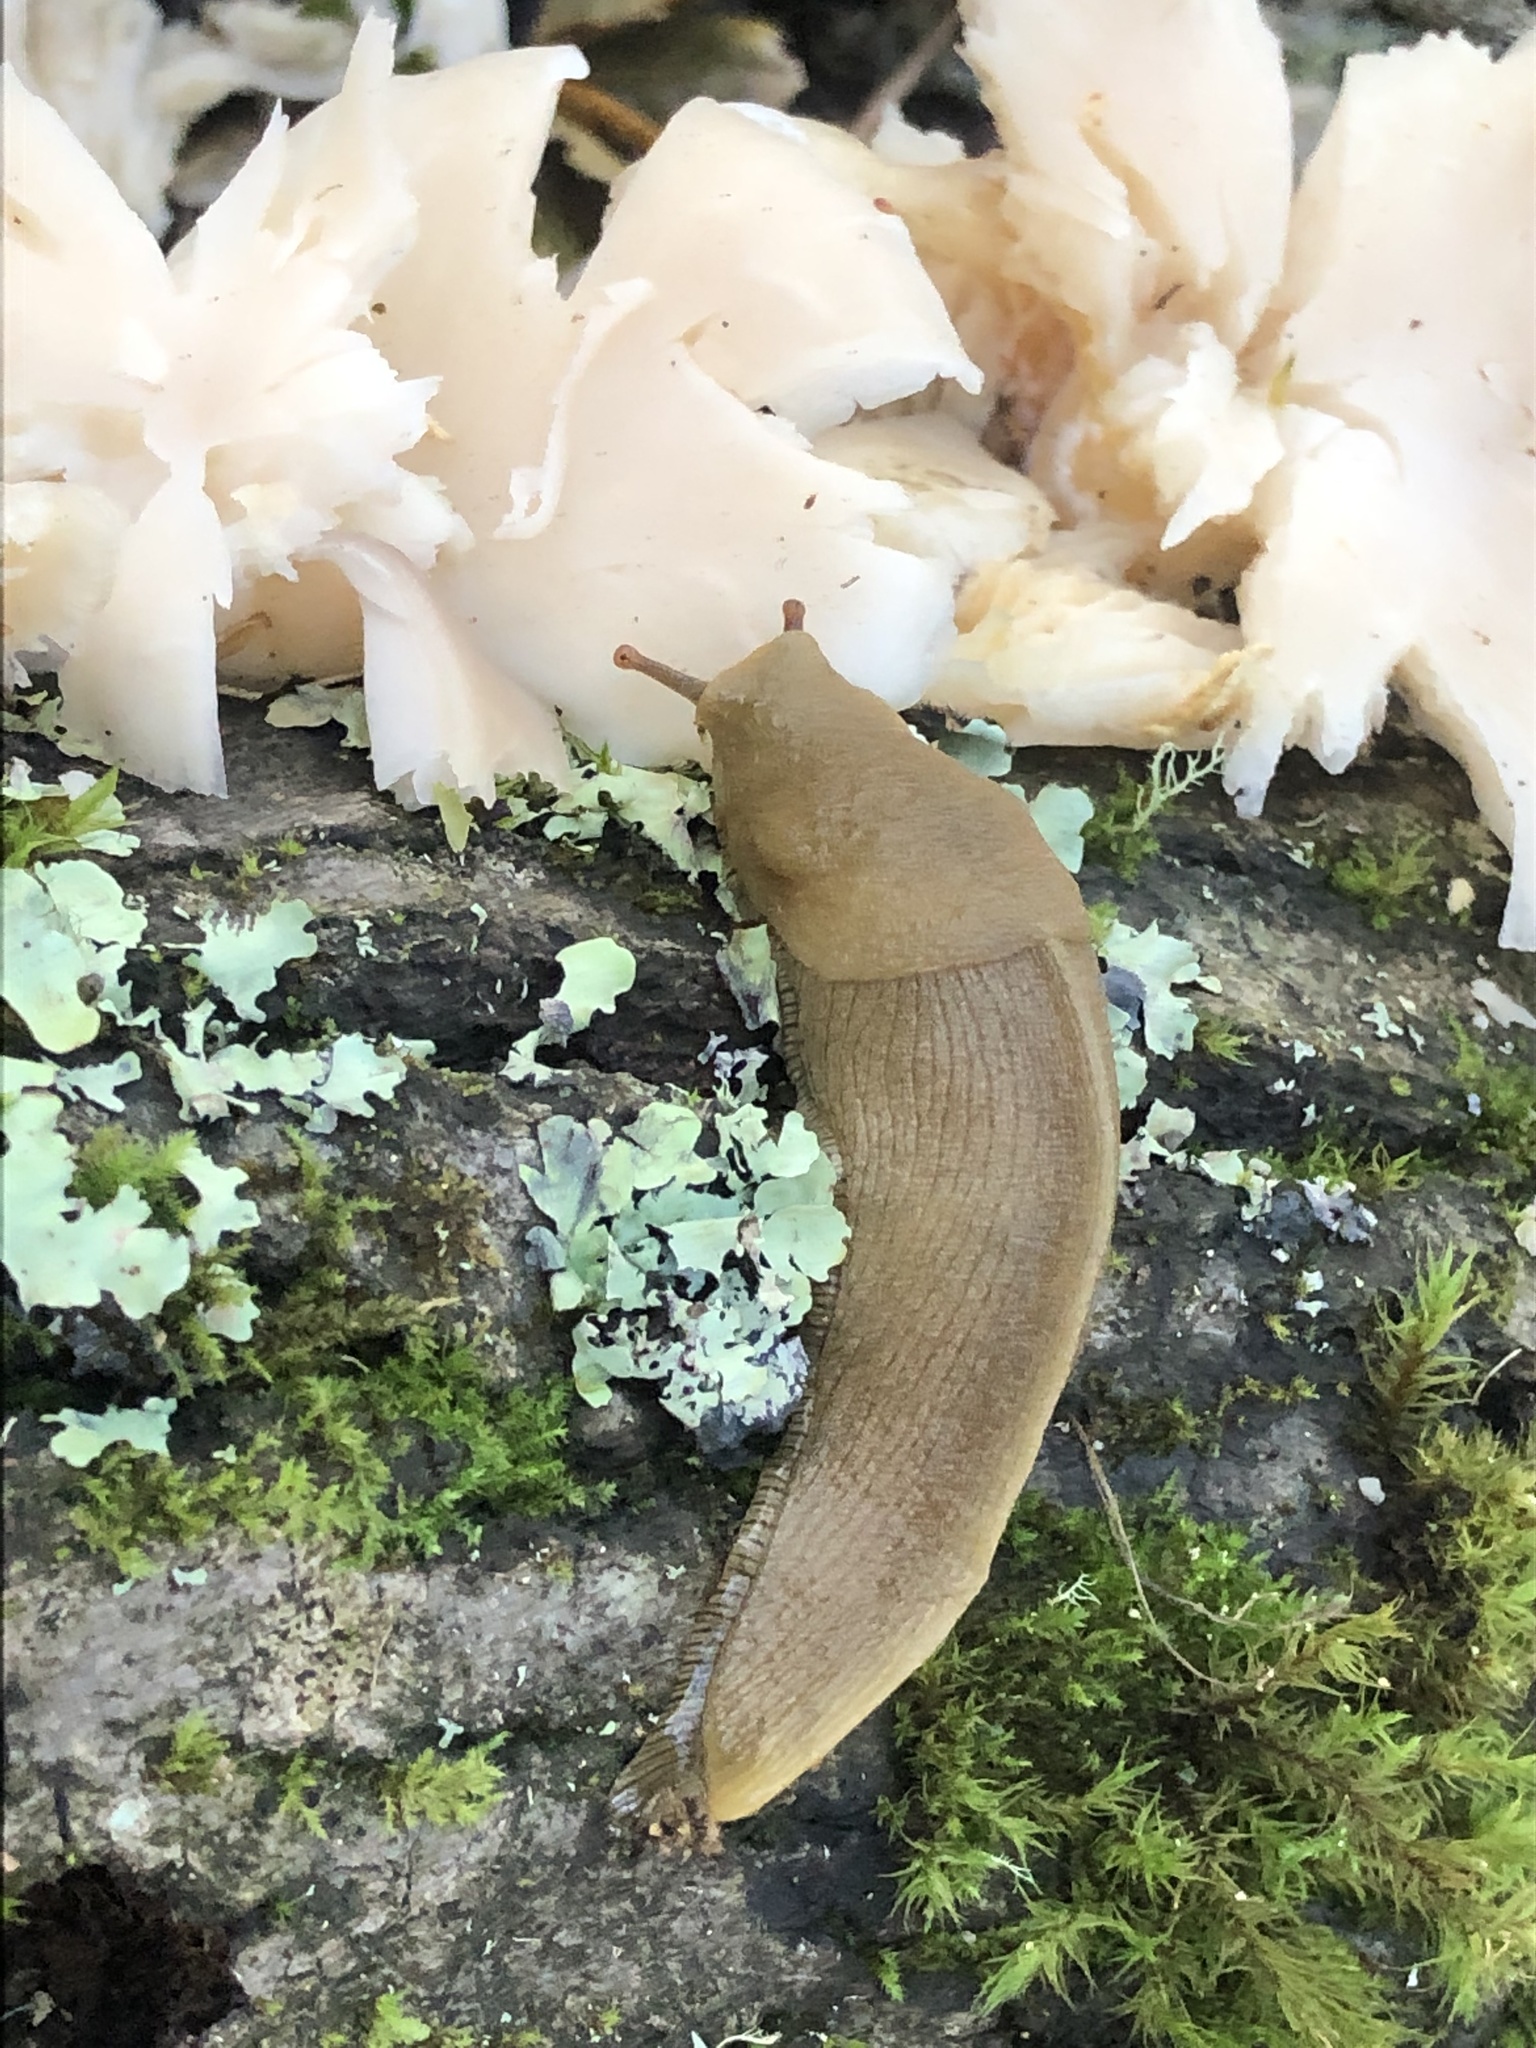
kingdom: Animalia
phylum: Mollusca
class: Gastropoda
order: Stylommatophora
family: Ariolimacidae
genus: Ariolimax
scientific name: Ariolimax buttoni
